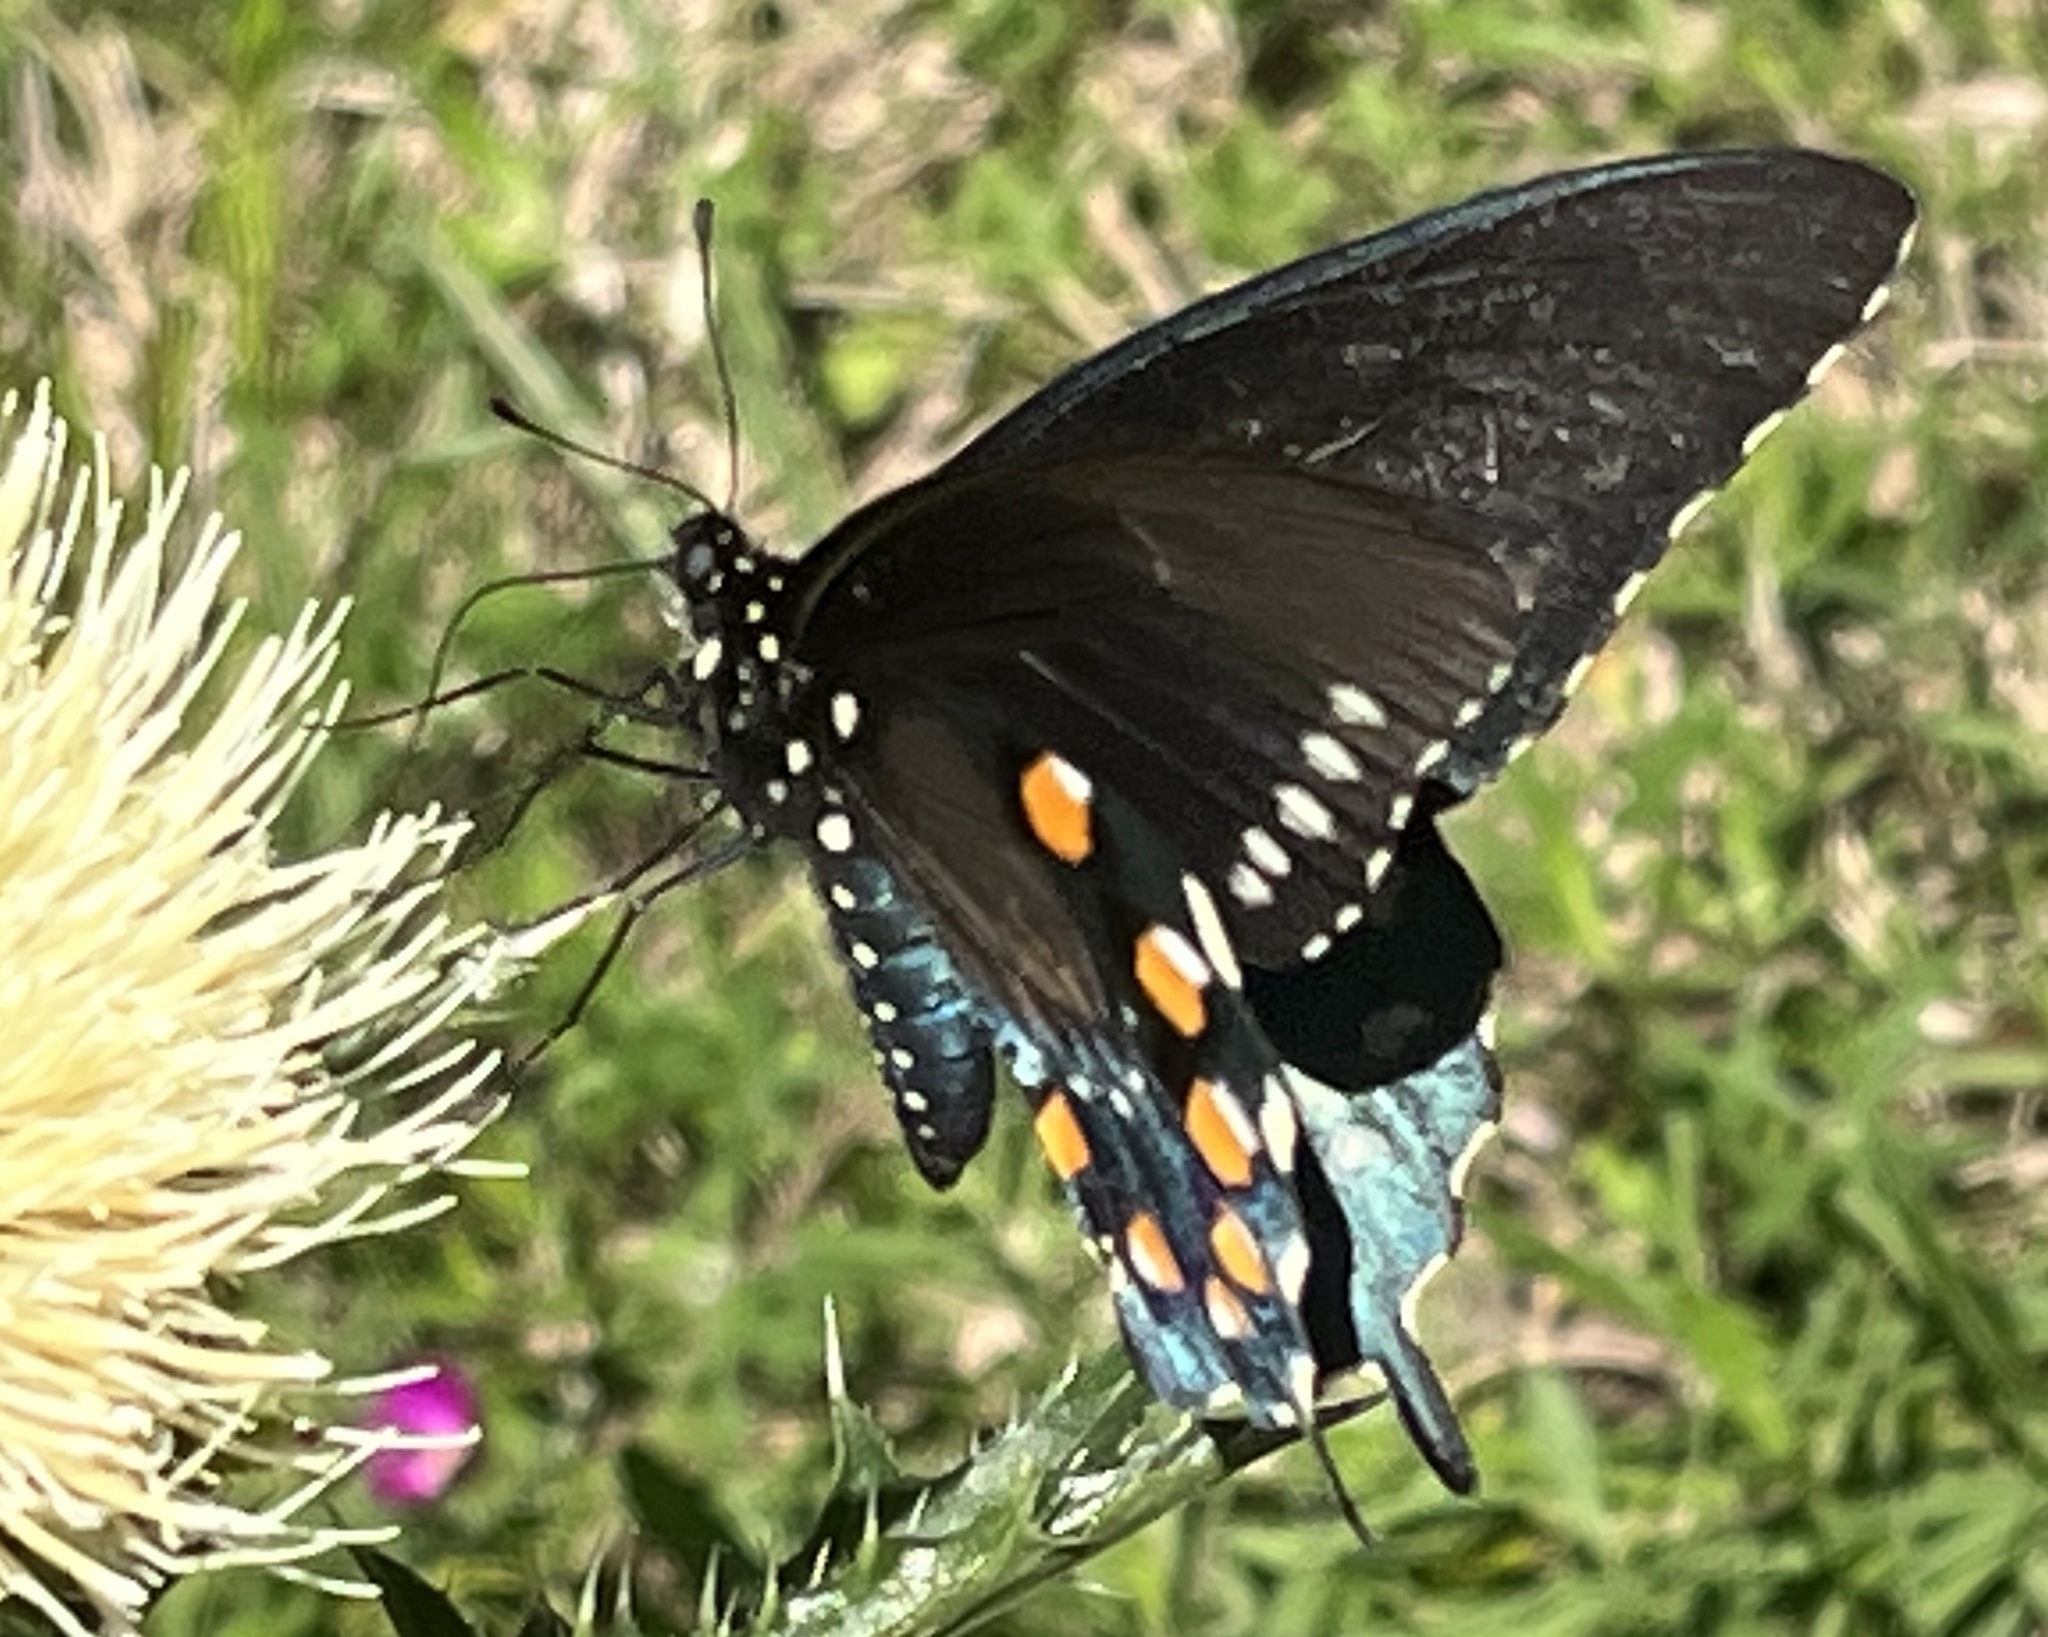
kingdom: Animalia
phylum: Arthropoda
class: Insecta
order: Lepidoptera
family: Papilionidae
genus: Battus
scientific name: Battus philenor
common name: Pipevine swallowtail
